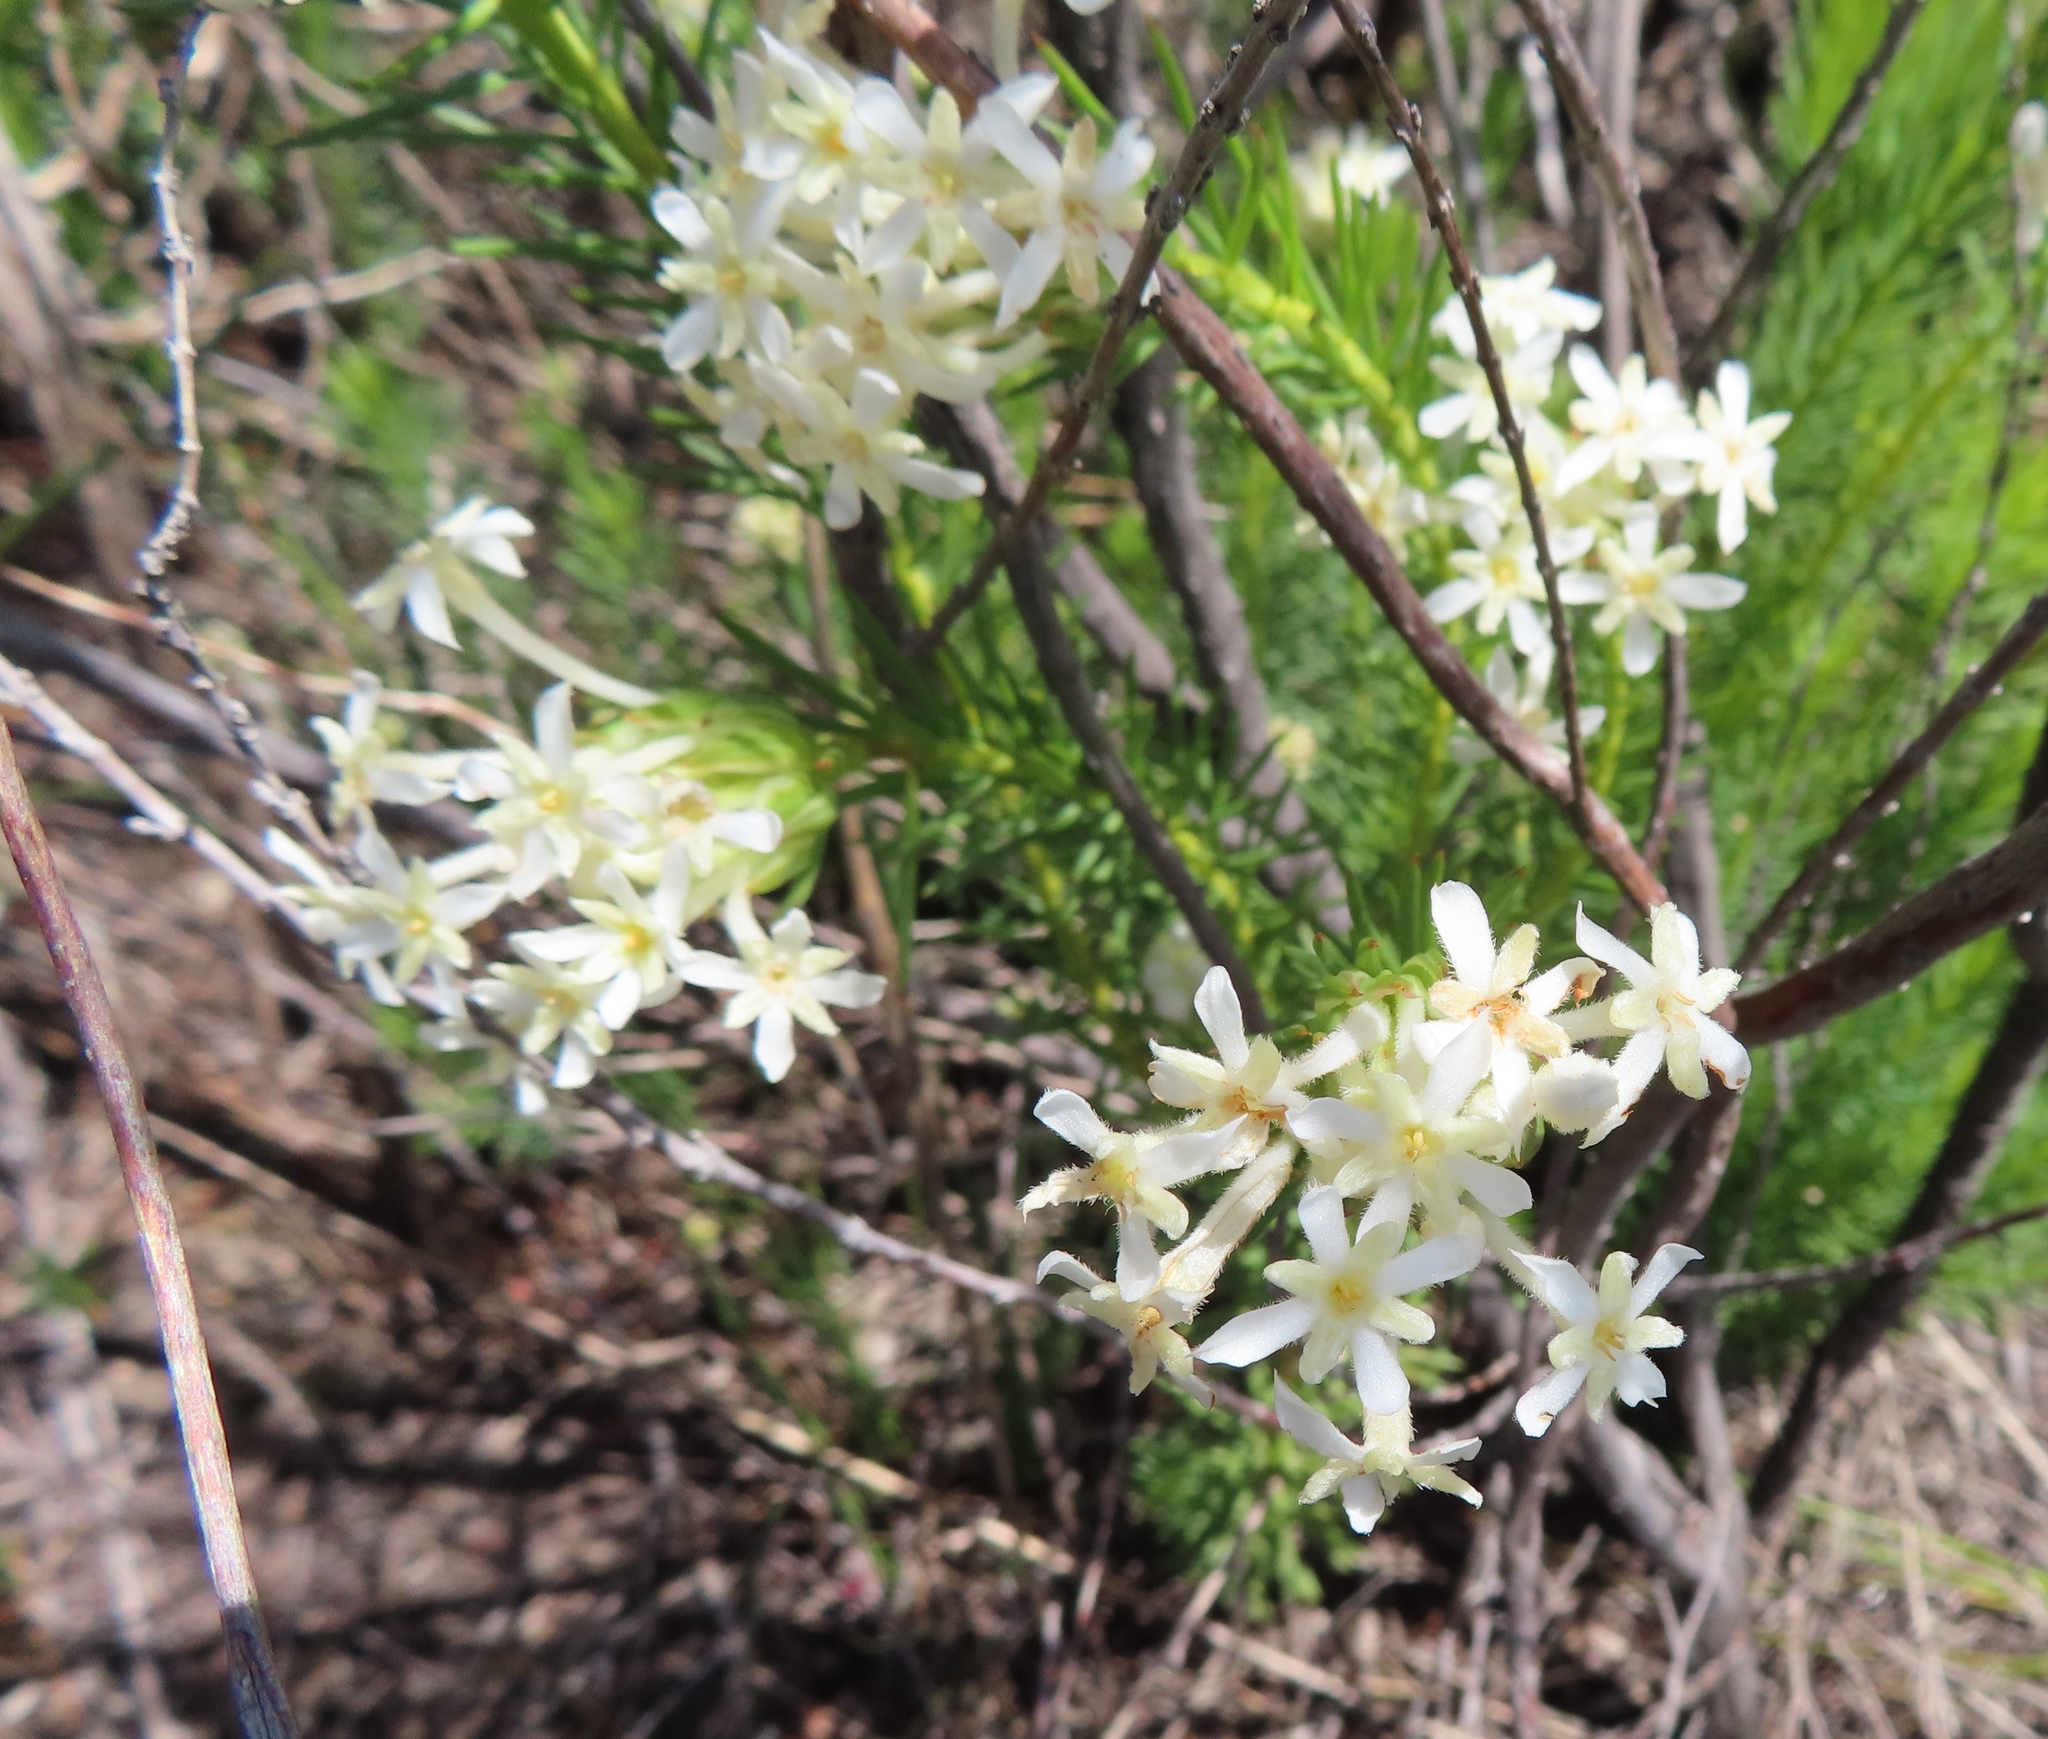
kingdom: Plantae
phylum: Tracheophyta
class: Magnoliopsida
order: Malvales
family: Thymelaeaceae
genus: Gnidia
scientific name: Gnidia pinifolia
